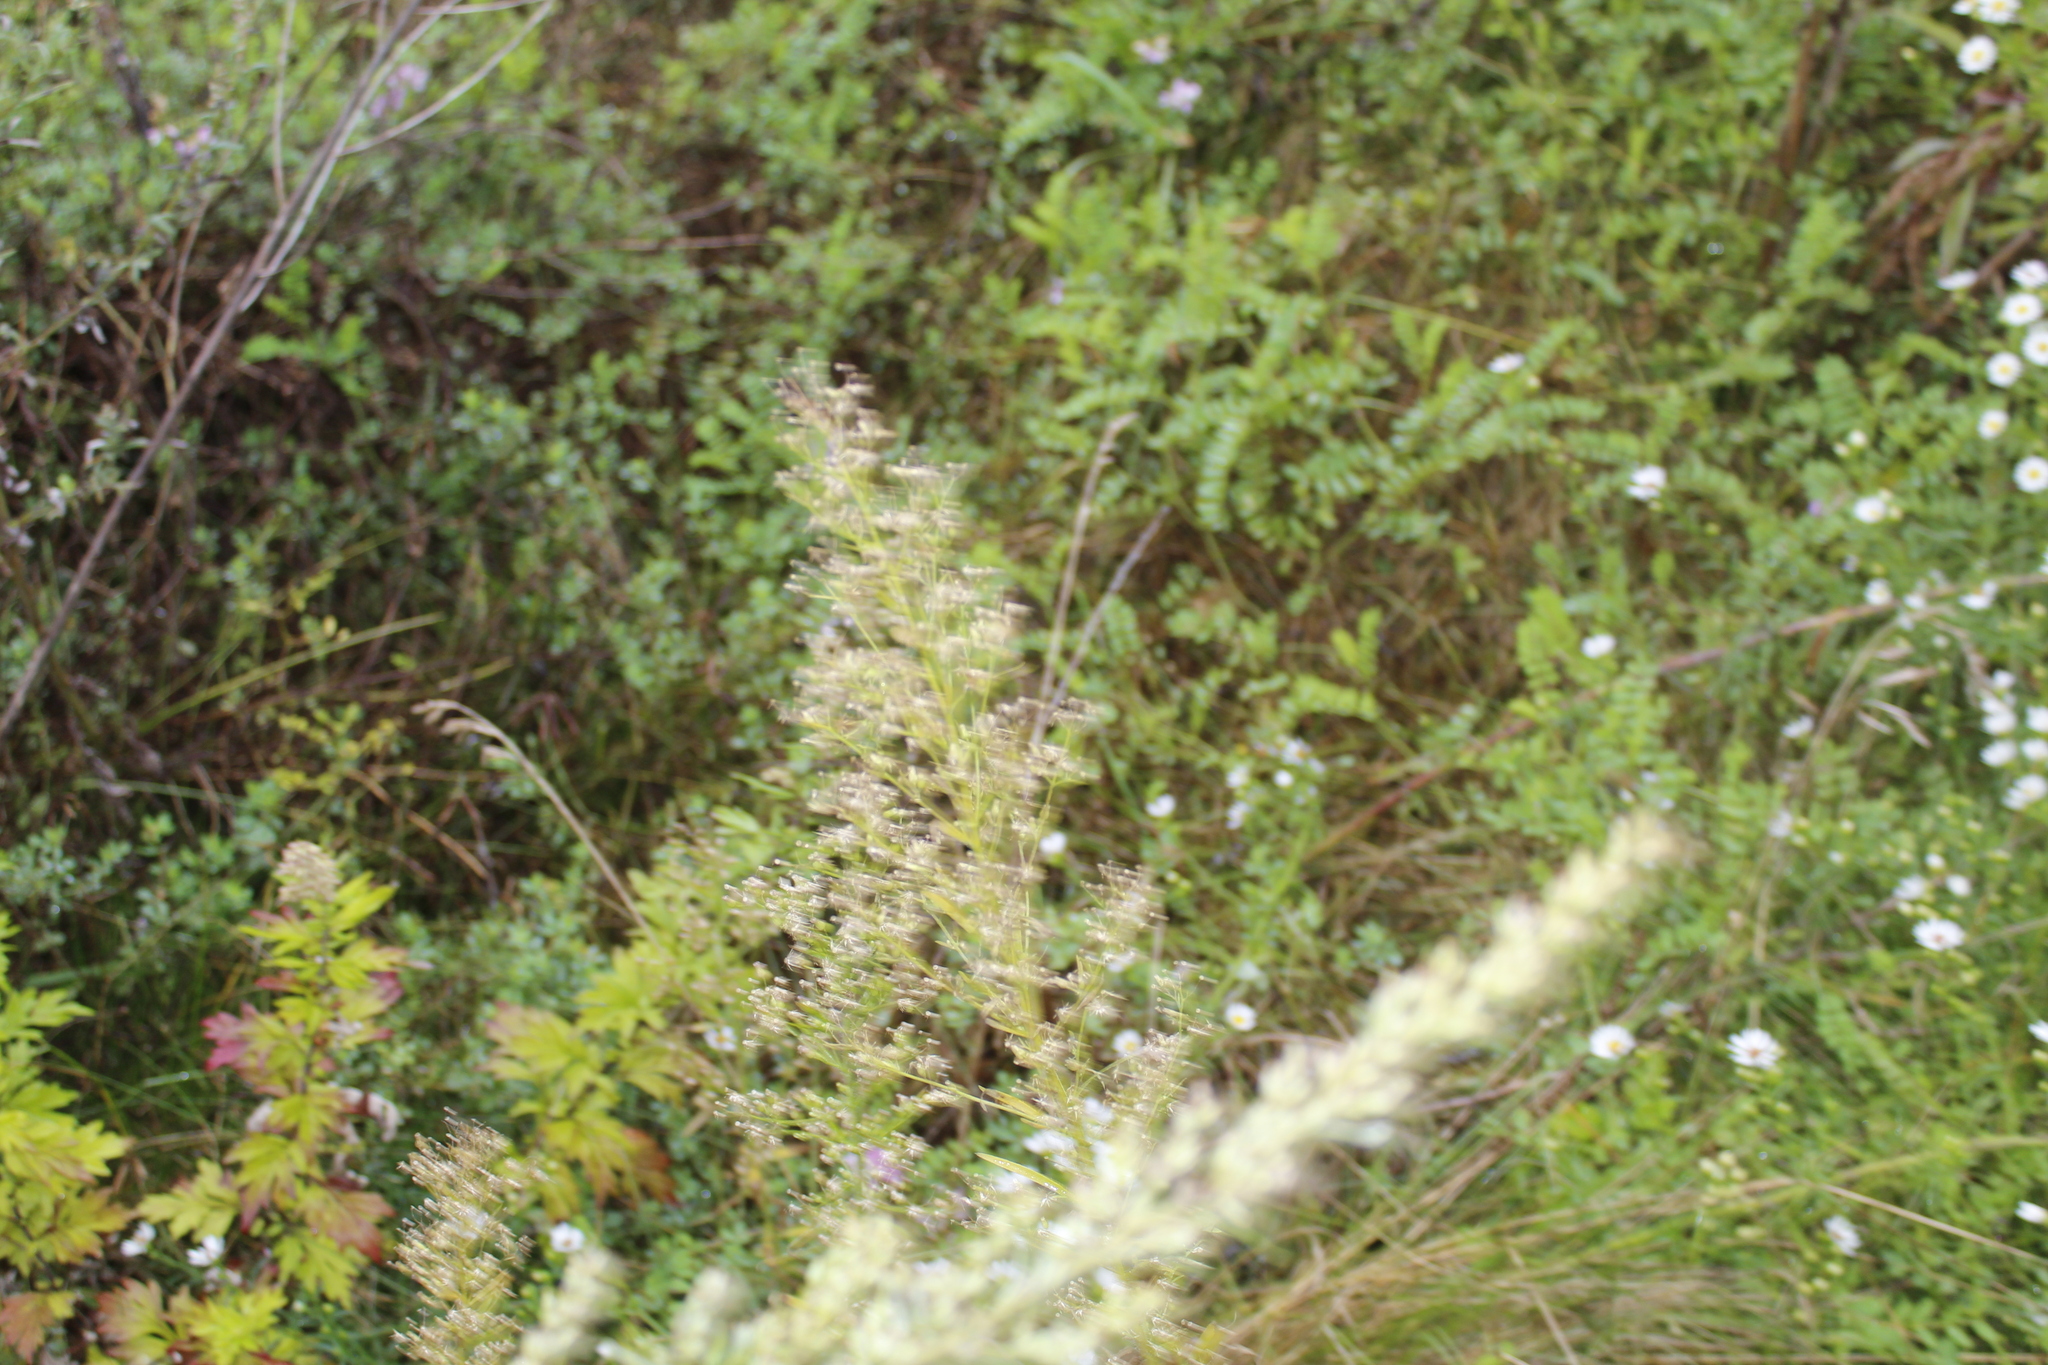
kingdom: Plantae
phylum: Tracheophyta
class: Magnoliopsida
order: Asterales
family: Asteraceae
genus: Erigeron
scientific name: Erigeron canadensis
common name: Canadian fleabane
